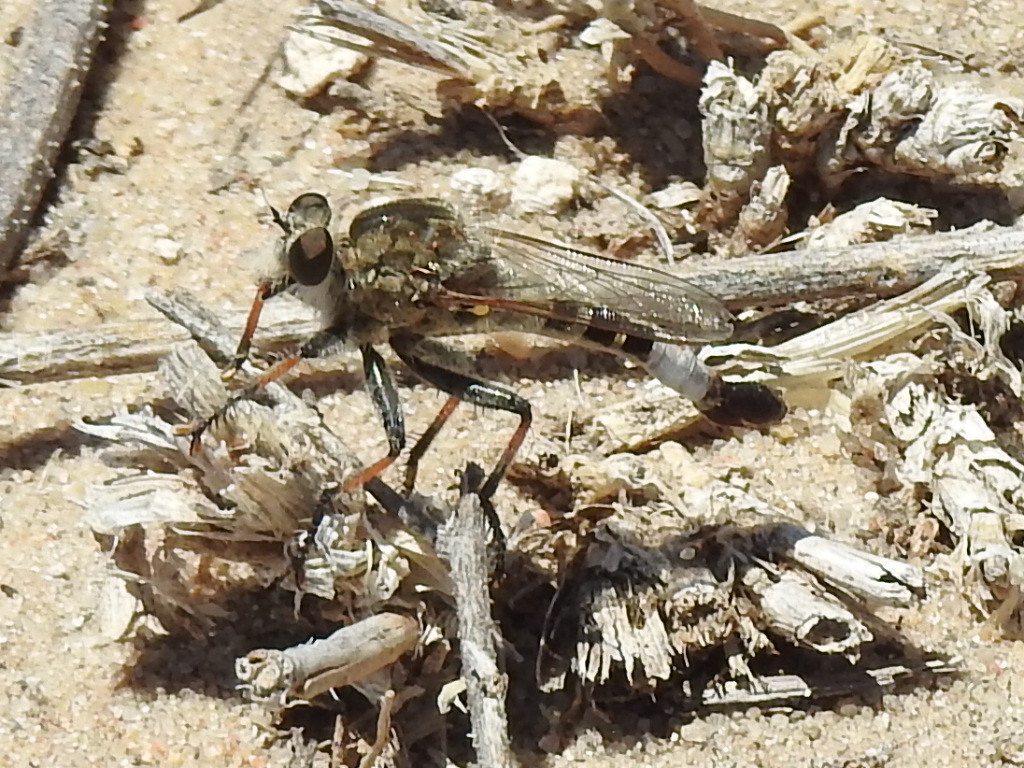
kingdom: Animalia
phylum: Arthropoda
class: Insecta
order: Diptera
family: Asilidae
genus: Efferia
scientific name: Efferia albibarbis
